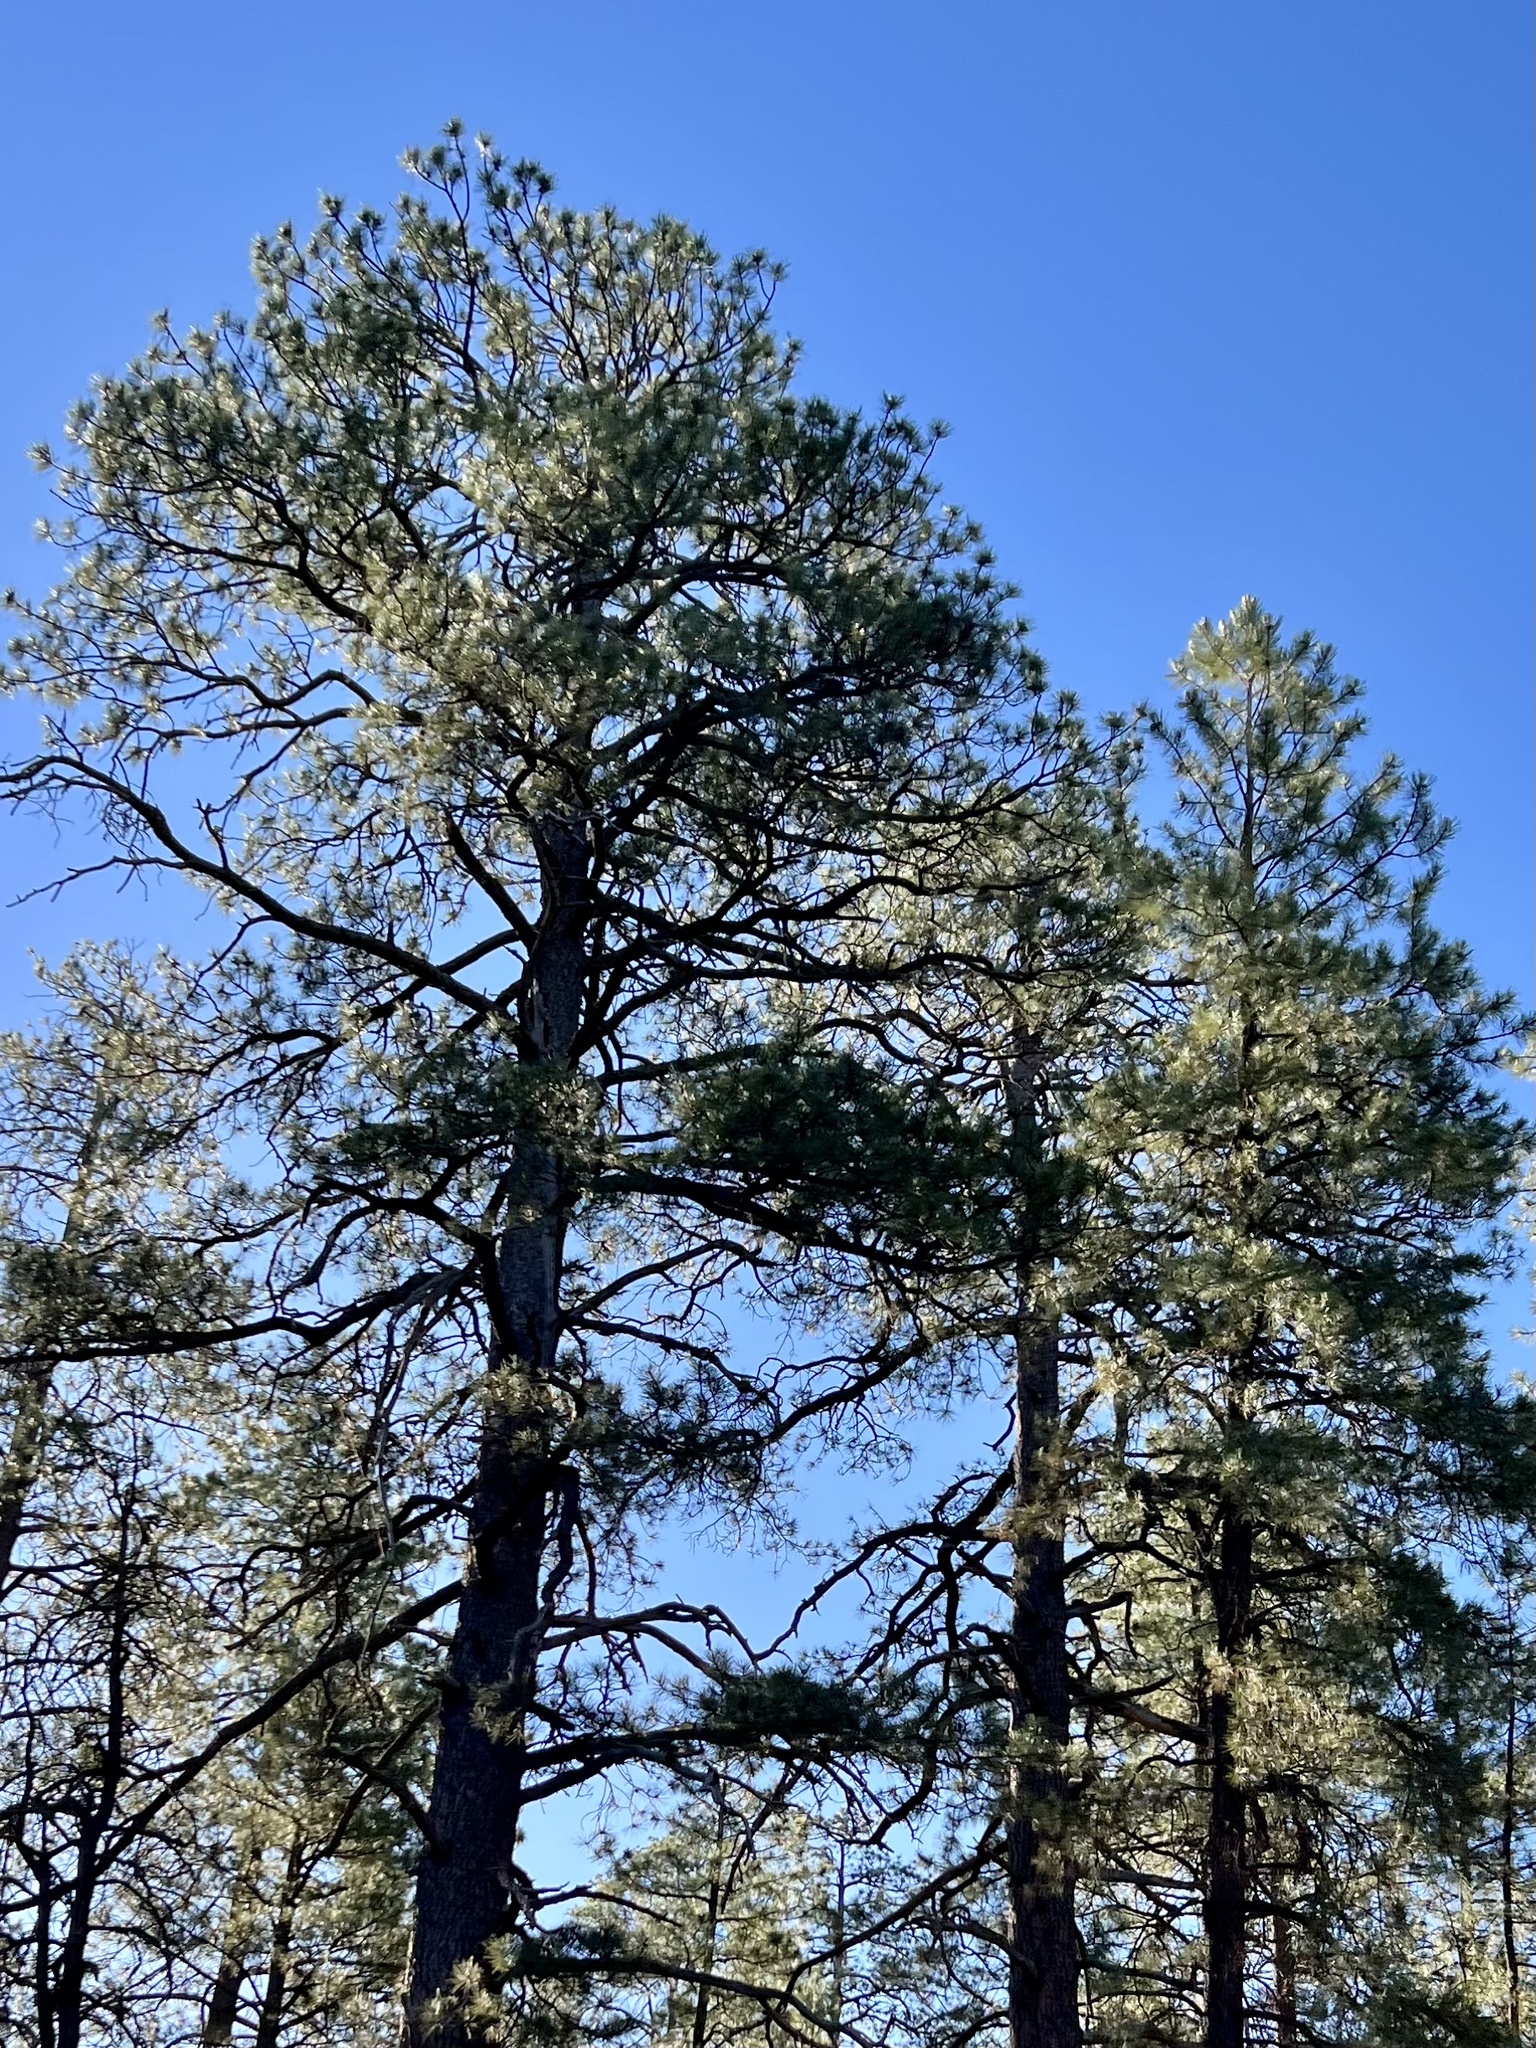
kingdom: Plantae
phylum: Tracheophyta
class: Pinopsida
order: Pinales
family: Pinaceae
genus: Pinus
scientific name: Pinus ponderosa
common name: Western yellow-pine
